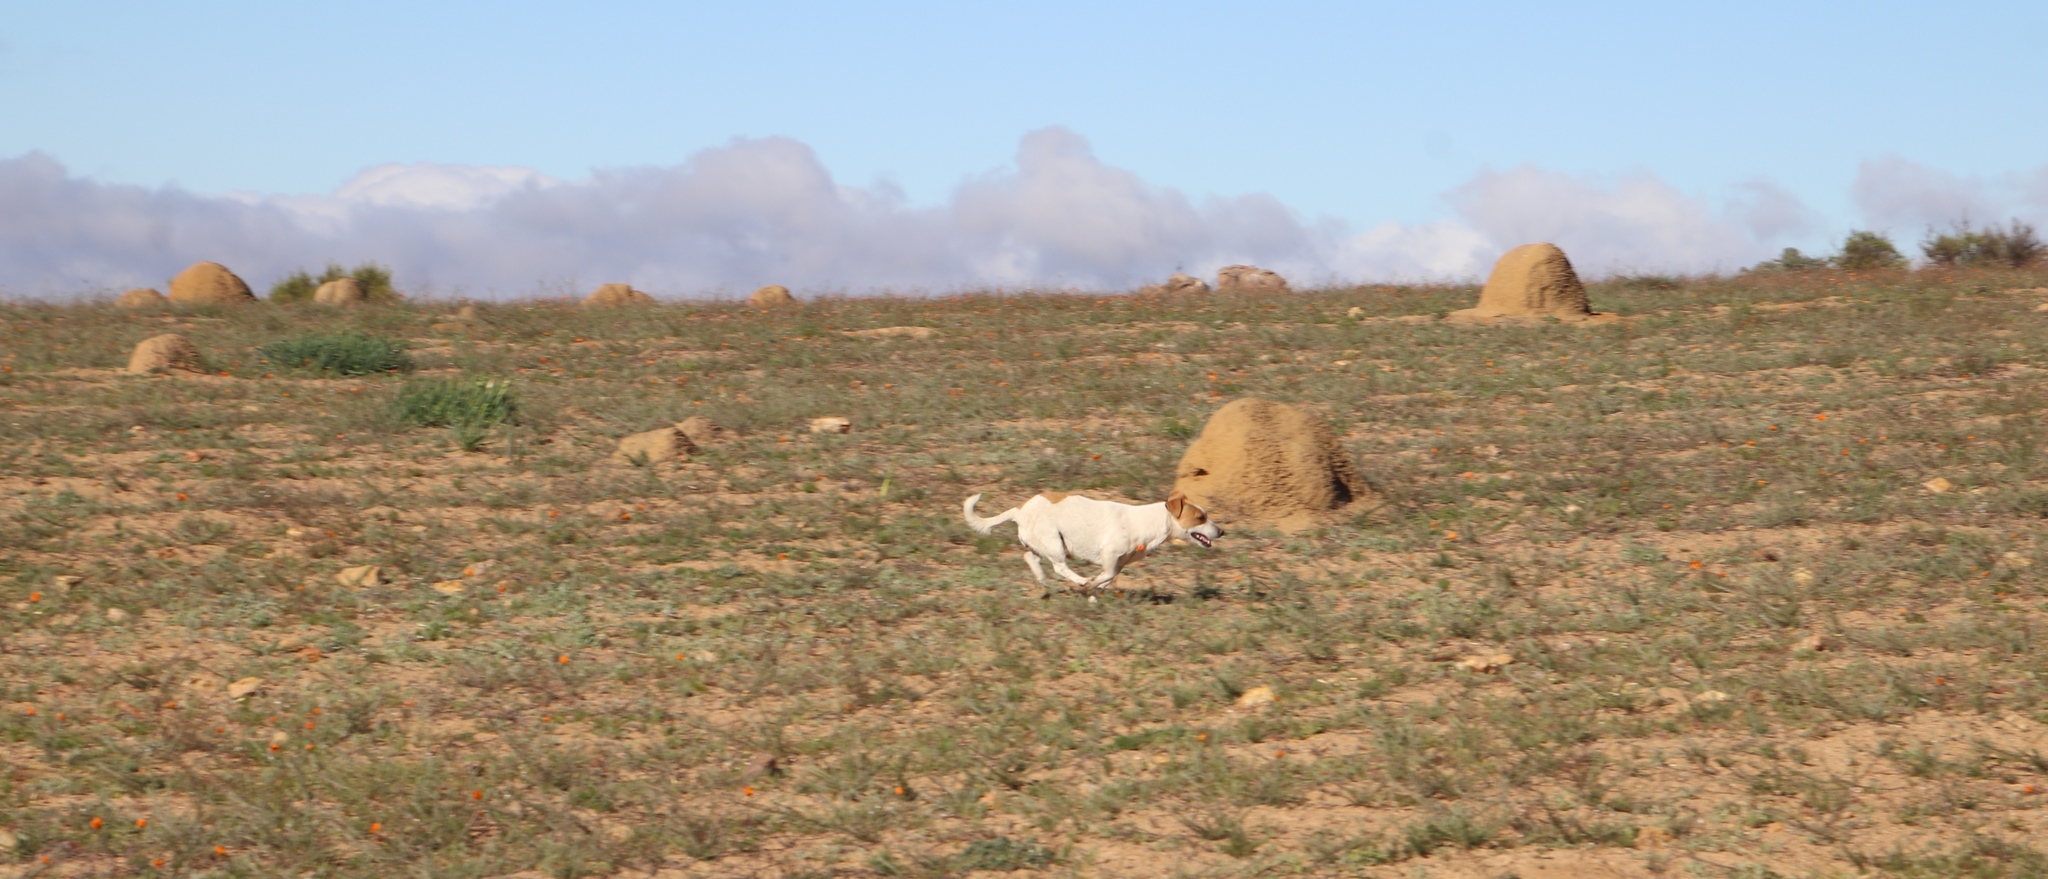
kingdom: Animalia
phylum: Chordata
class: Mammalia
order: Carnivora
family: Canidae
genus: Canis
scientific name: Canis lupus
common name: Gray wolf
